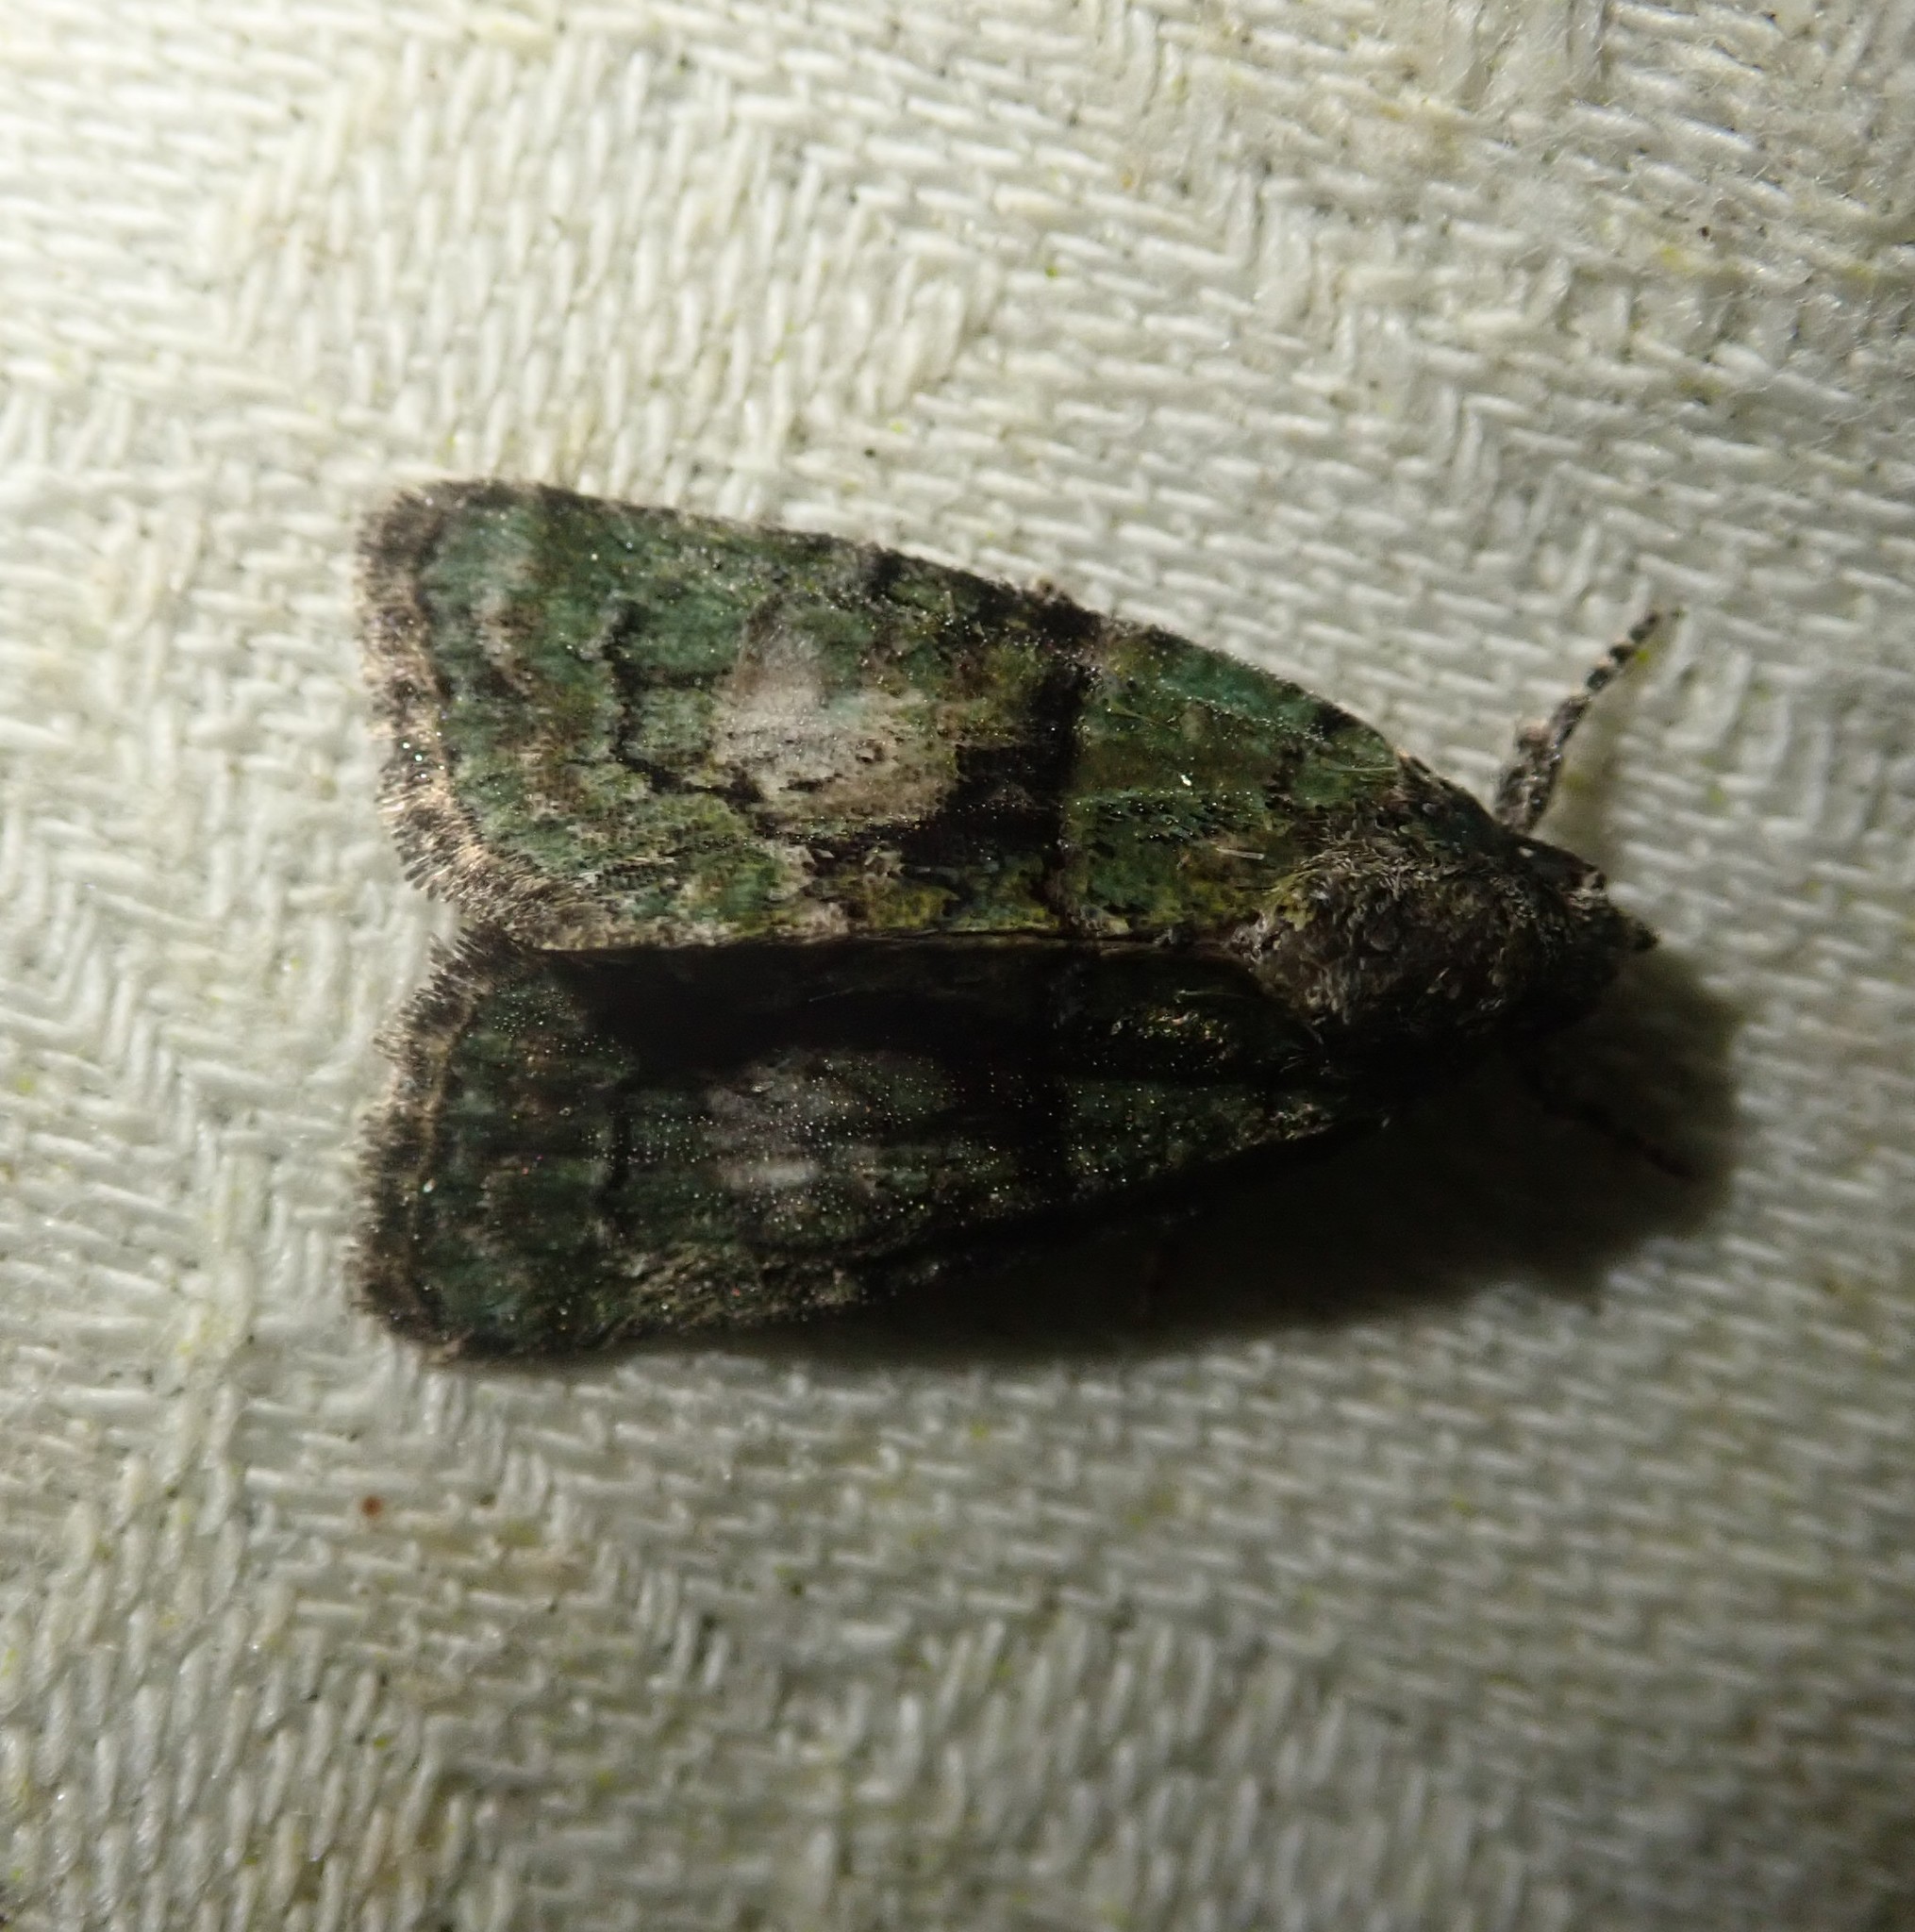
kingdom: Animalia
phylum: Arthropoda
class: Insecta
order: Lepidoptera
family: Noctuidae
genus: Cryphia
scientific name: Cryphia algae
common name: Tree-lichen beauty
